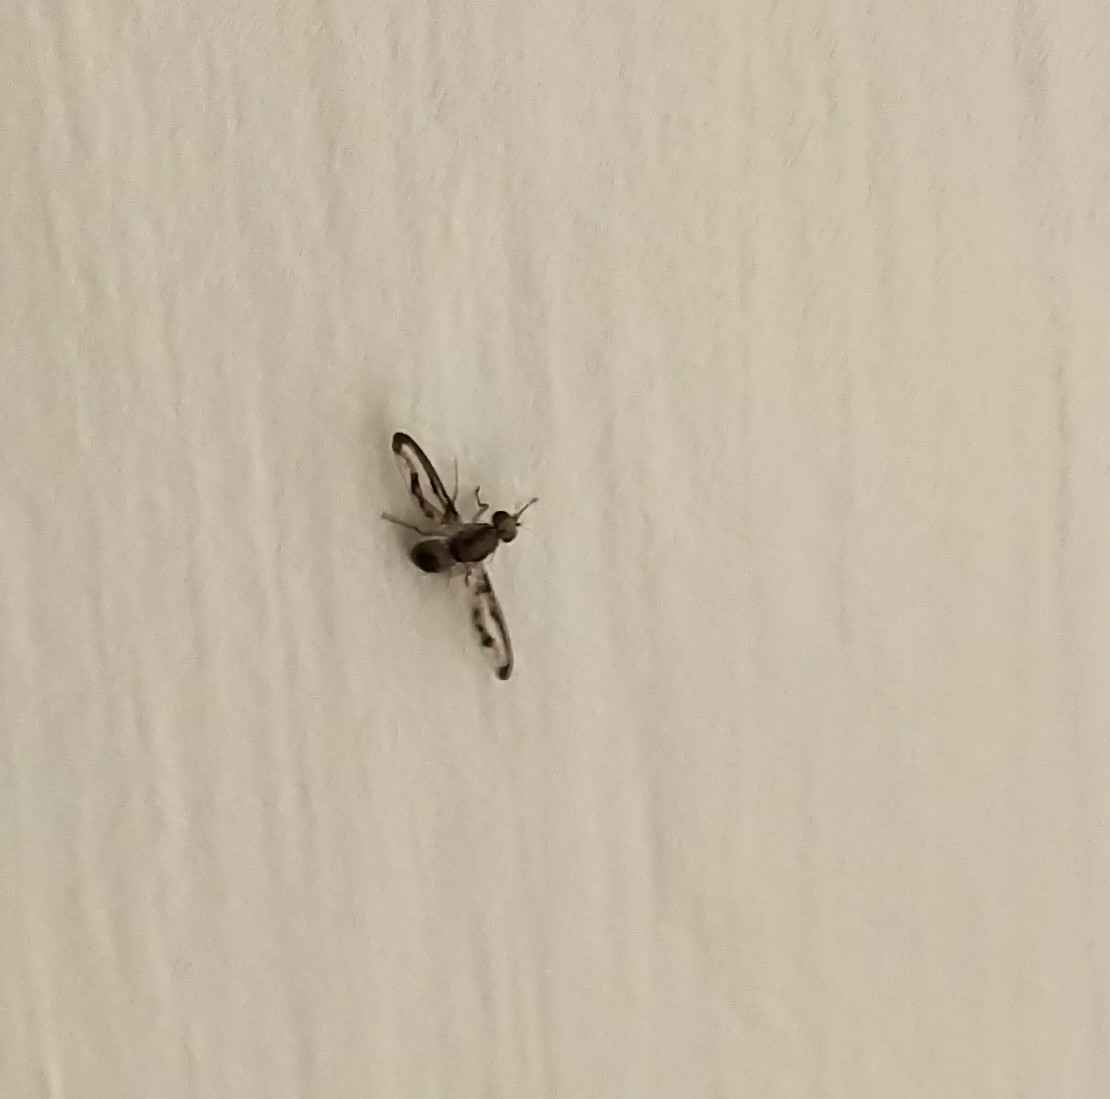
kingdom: Animalia
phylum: Arthropoda
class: Insecta
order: Diptera
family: Pallopteridae
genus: Toxonevra
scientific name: Toxonevra muliebris
